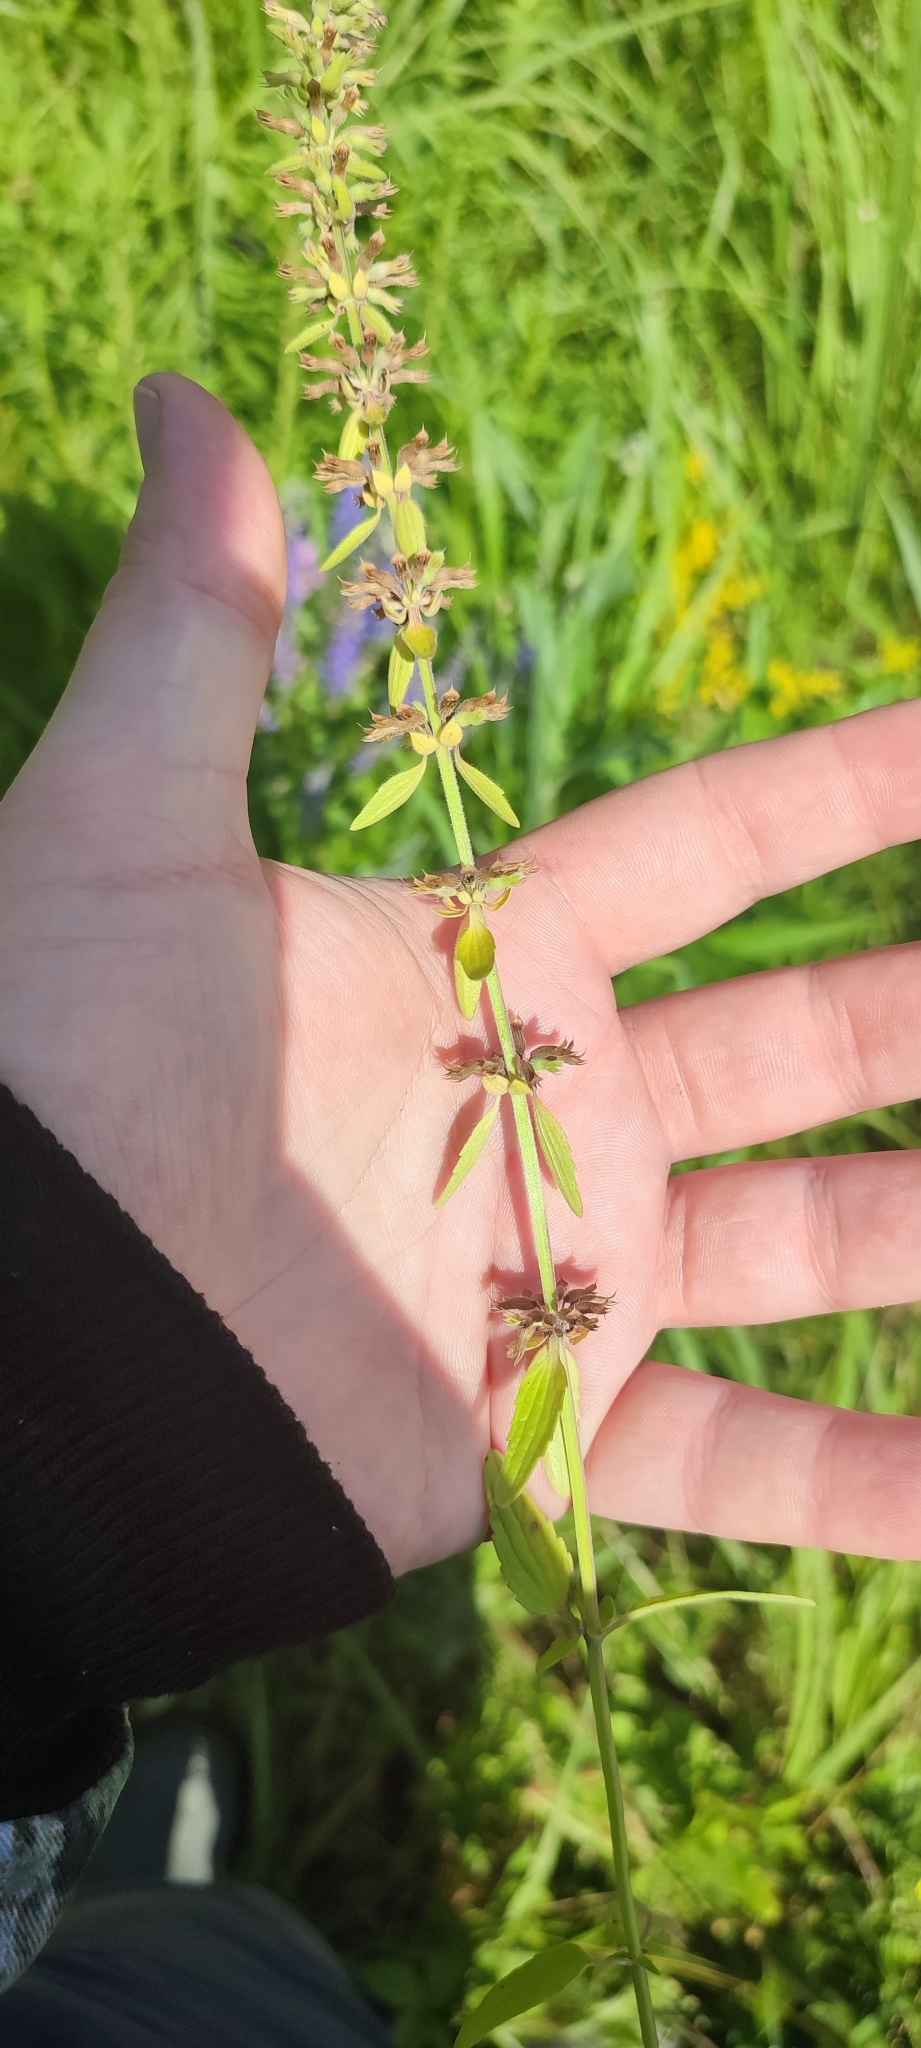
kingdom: Plantae
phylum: Tracheophyta
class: Magnoliopsida
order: Lamiales
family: Lamiaceae
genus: Dracocephalum
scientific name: Dracocephalum thymiflorum
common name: Thymeleaf dragonhead
